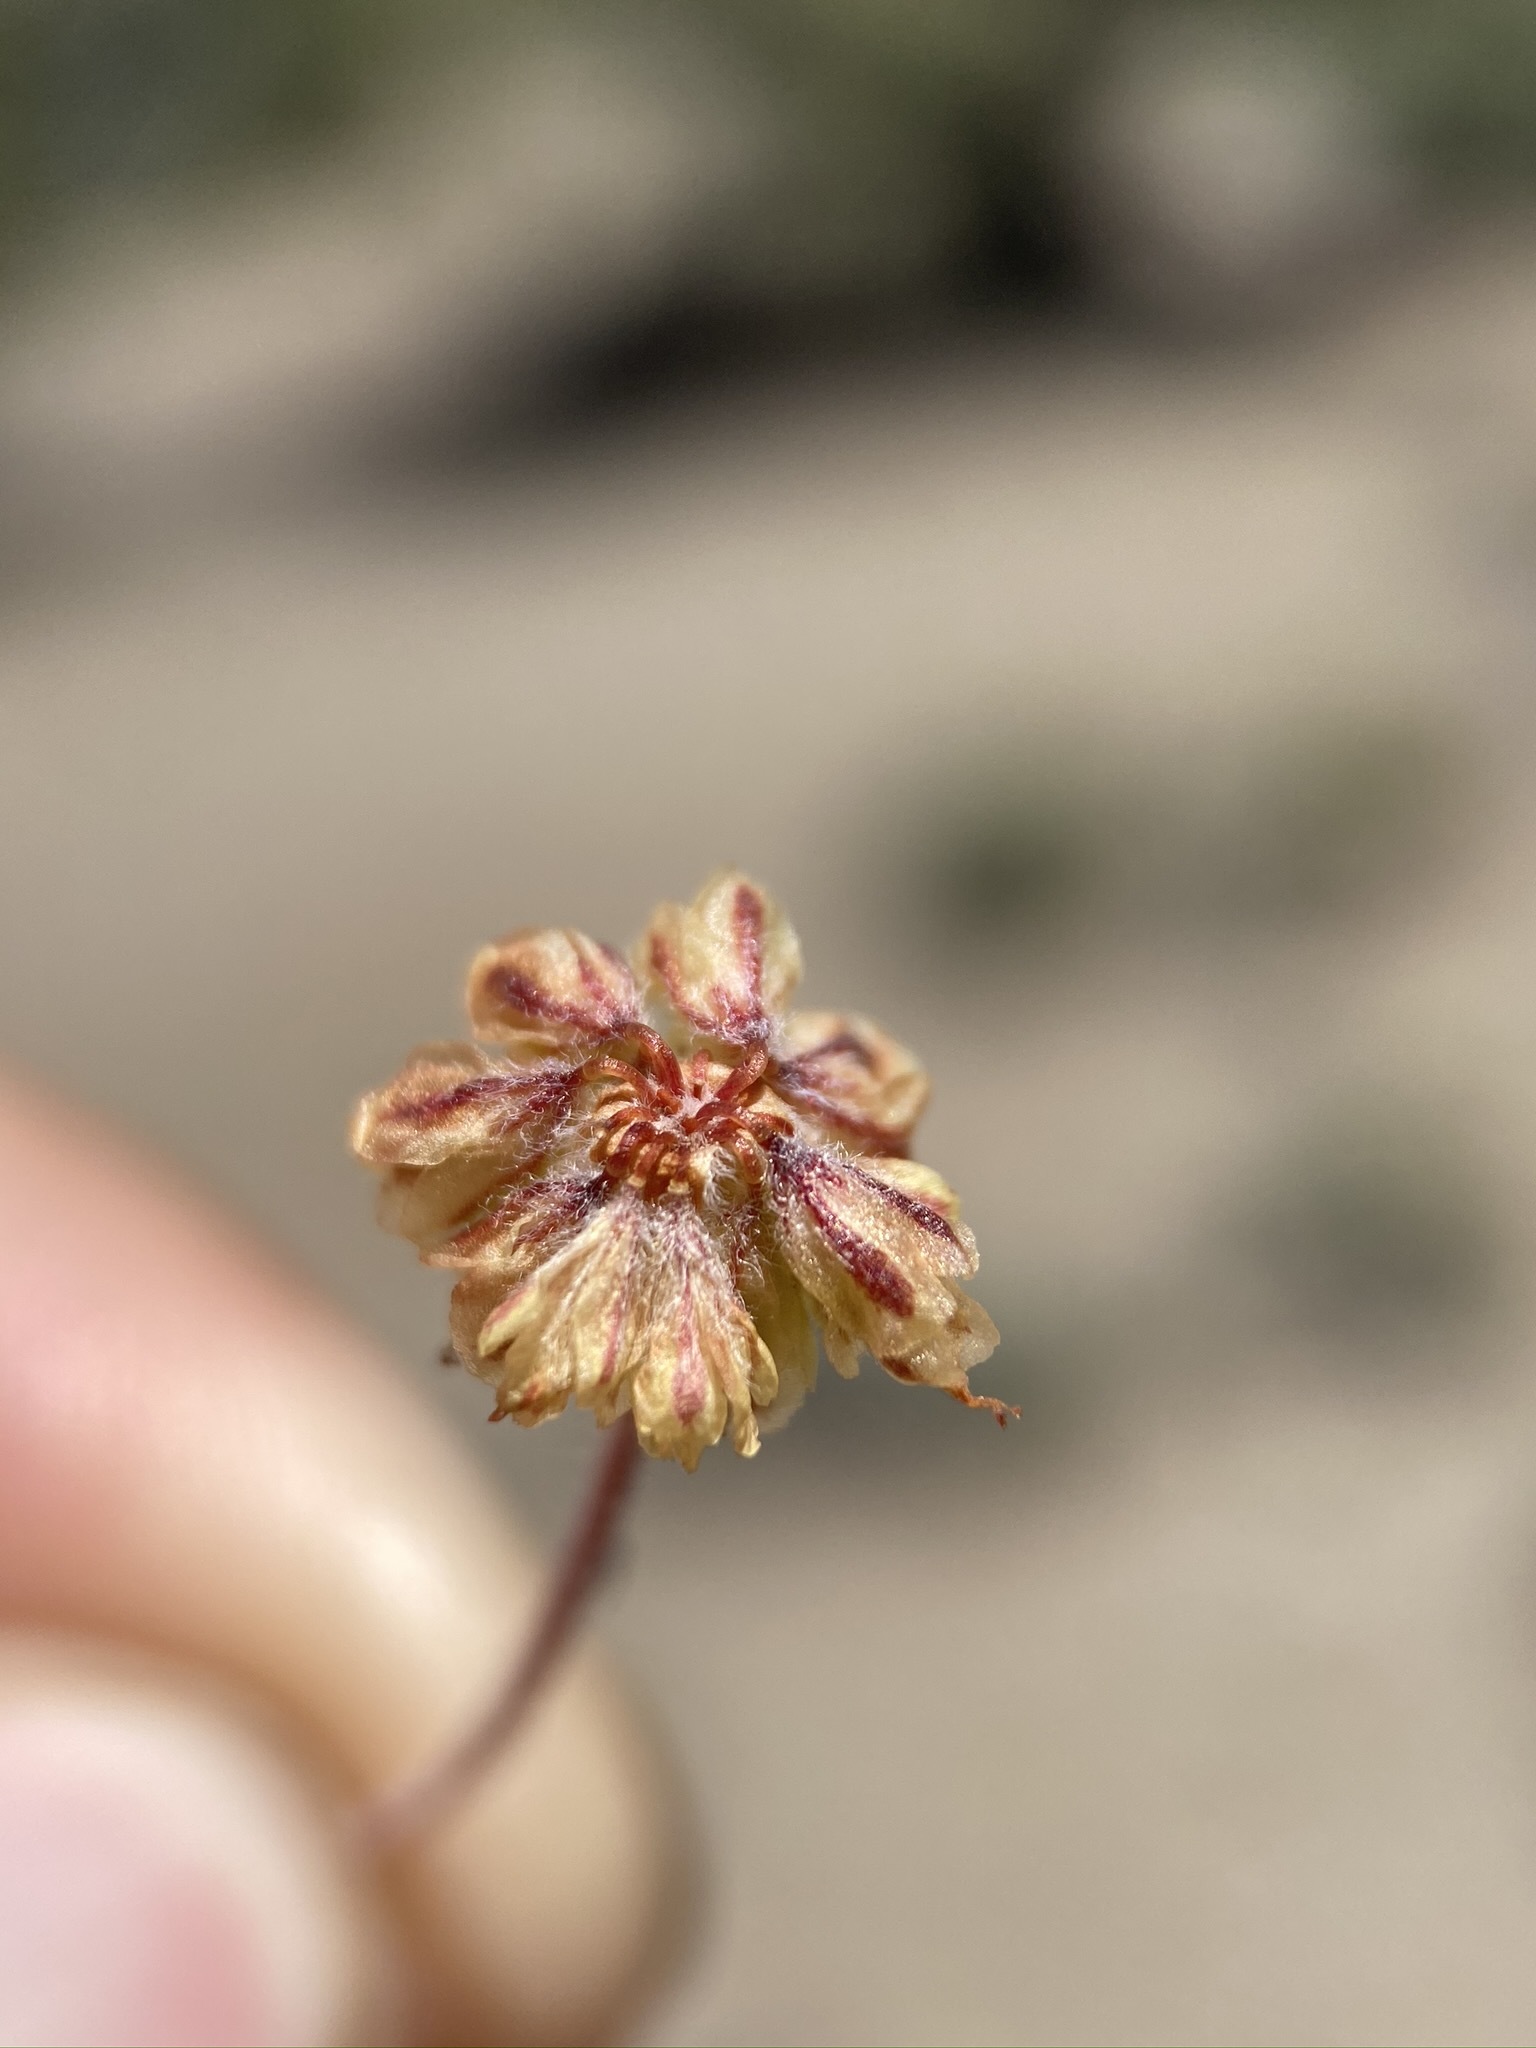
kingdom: Plantae
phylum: Tracheophyta
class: Magnoliopsida
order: Caryophyllales
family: Polygonaceae
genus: Eriogonum
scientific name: Eriogonum caespitosum
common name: Matted wild buckwheat
